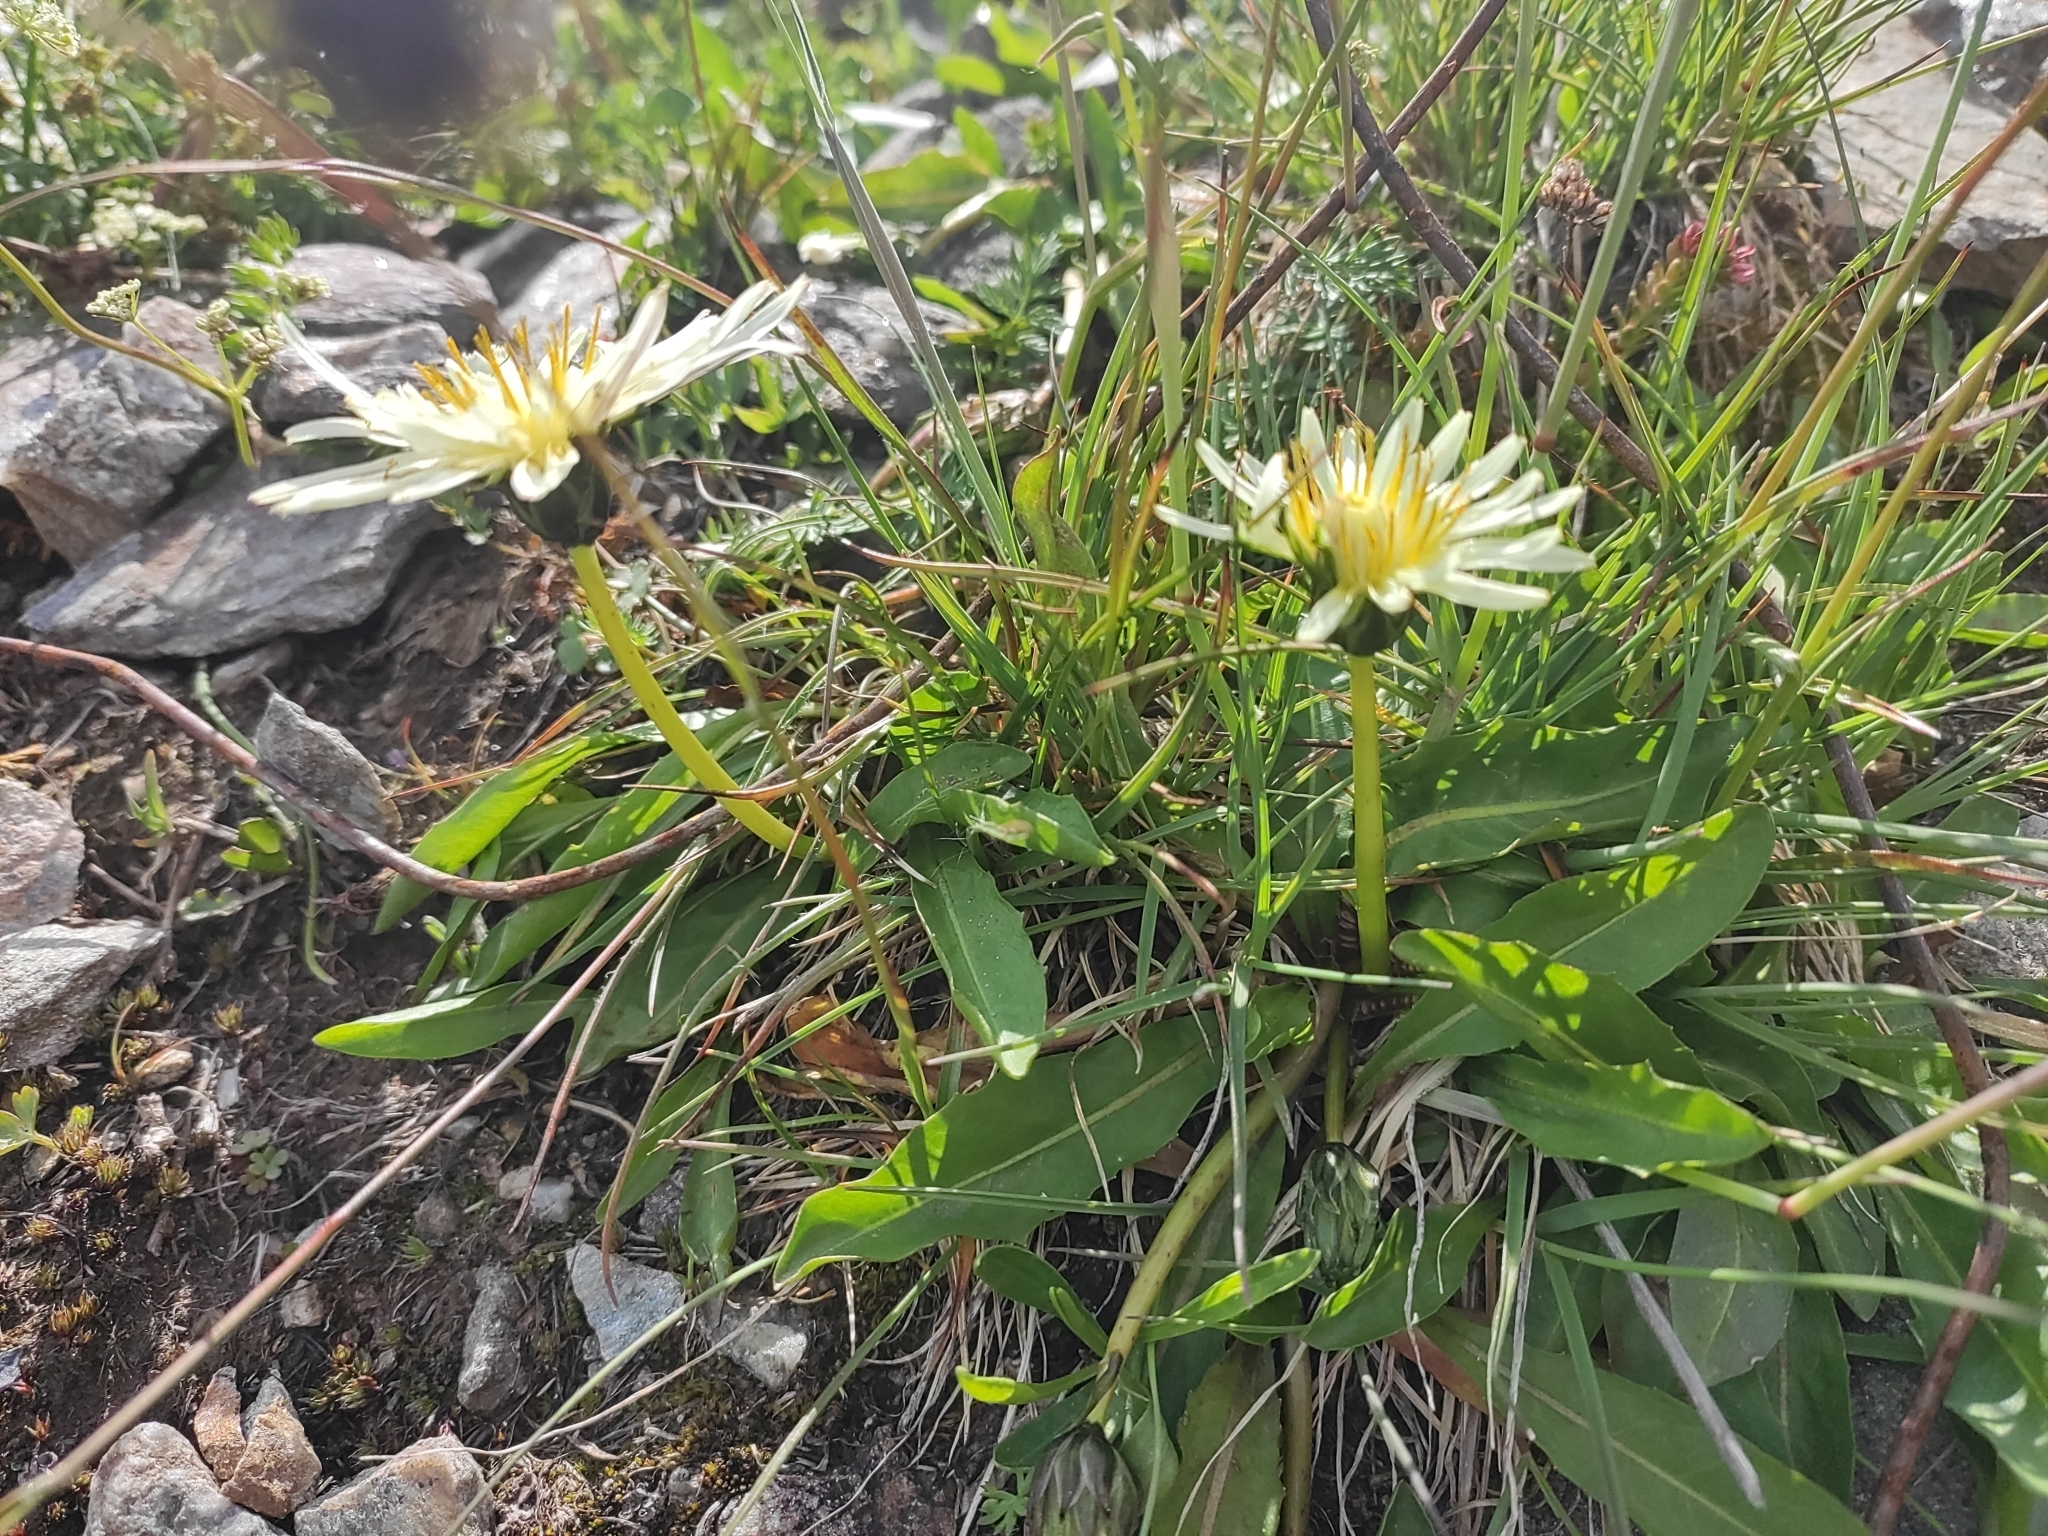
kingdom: Plantae
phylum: Tracheophyta
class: Magnoliopsida
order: Asterales
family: Asteraceae
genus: Taraxacum
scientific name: Taraxacum confusum
